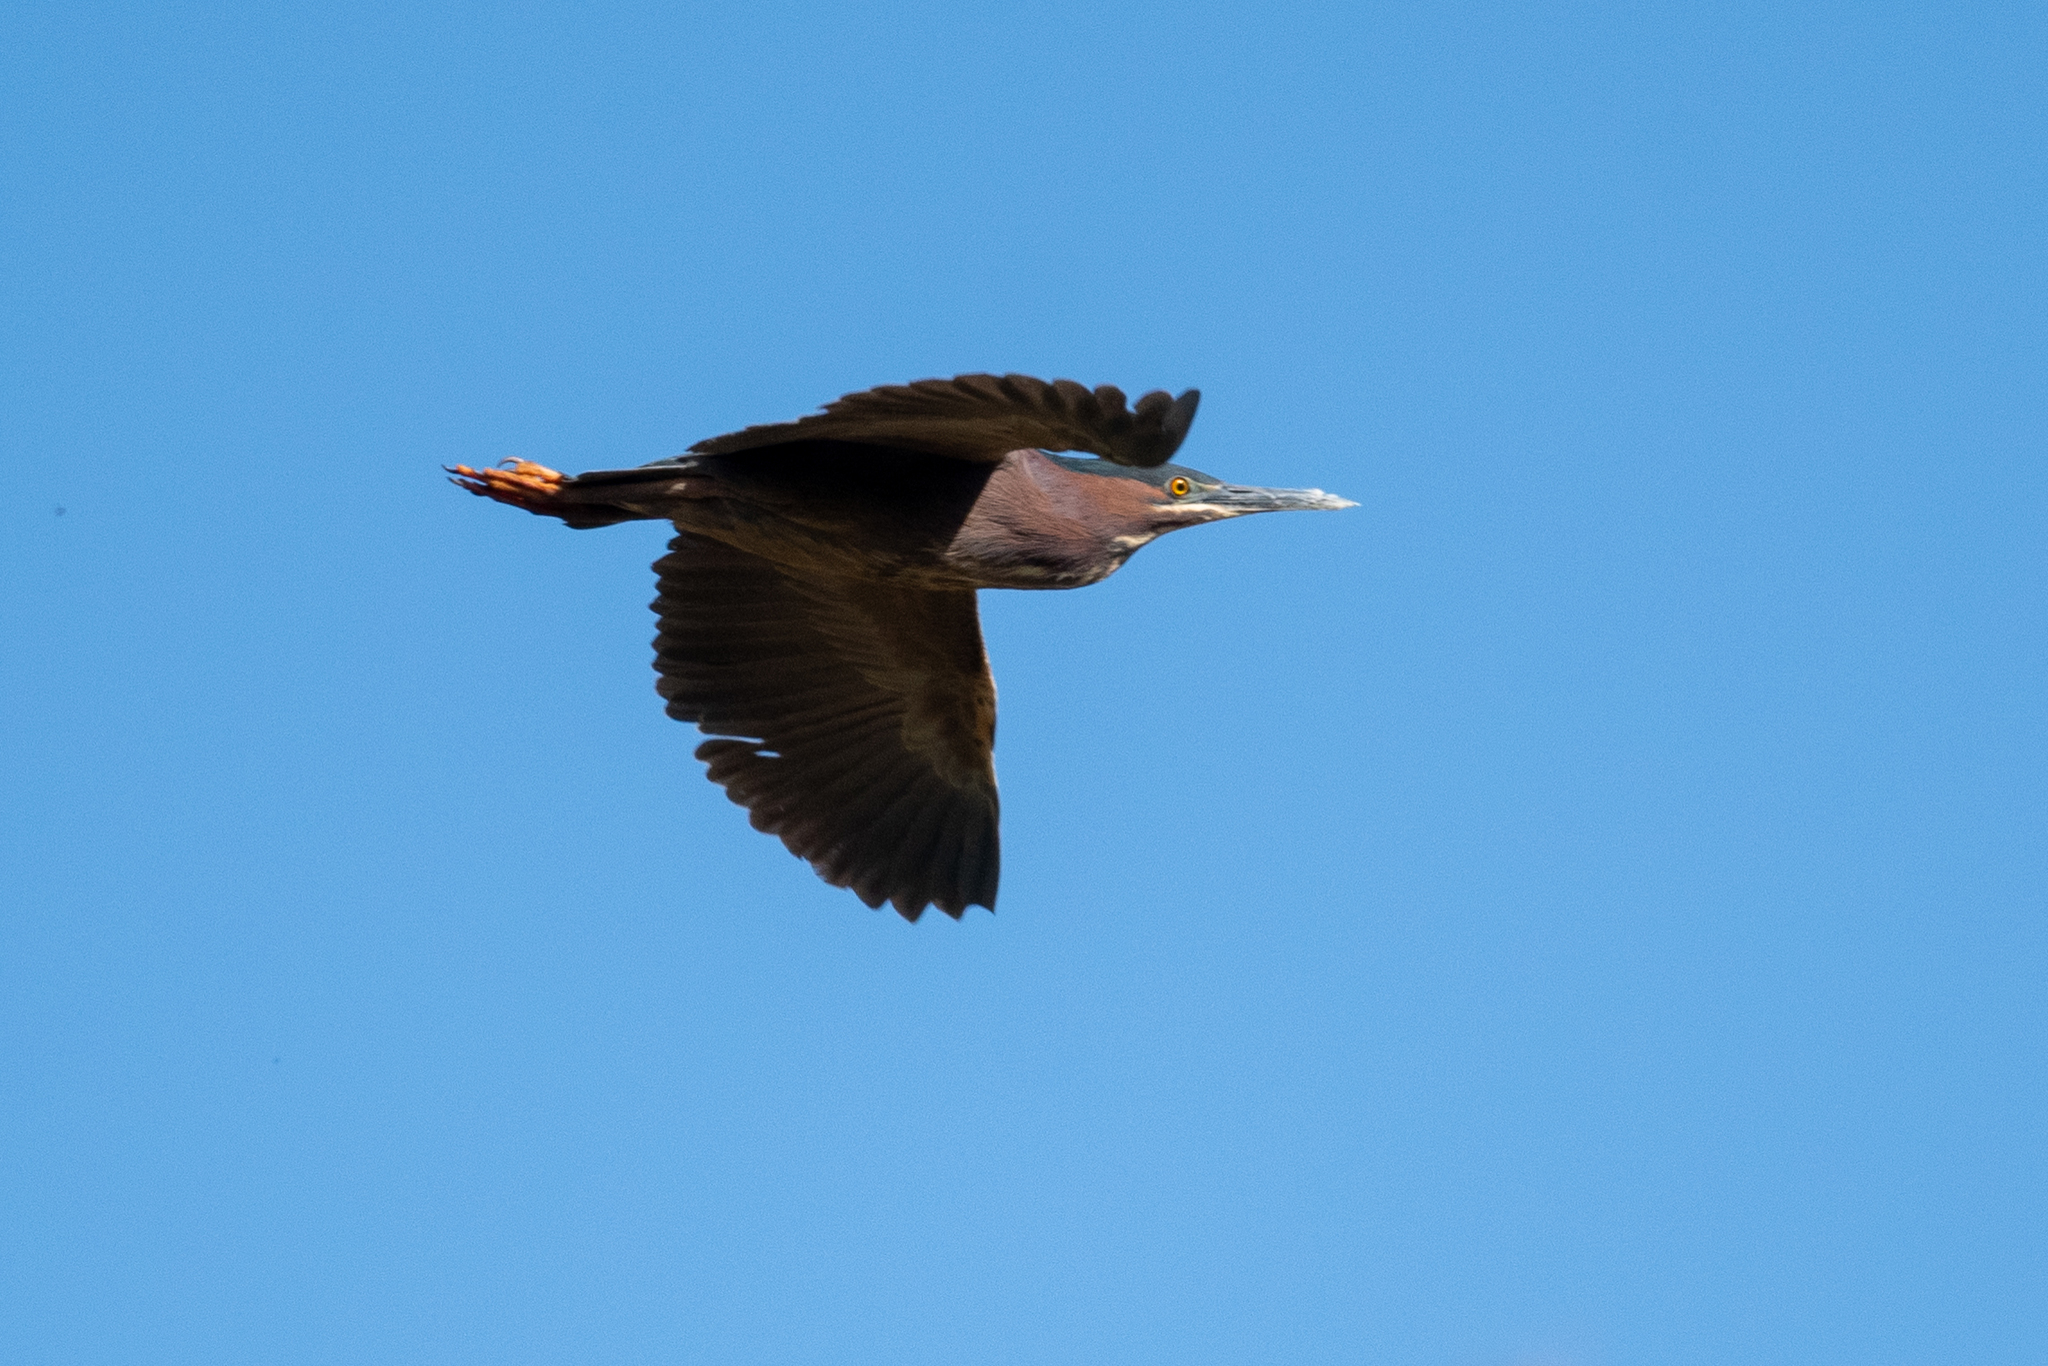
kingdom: Animalia
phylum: Chordata
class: Aves
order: Pelecaniformes
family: Ardeidae
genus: Butorides
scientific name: Butorides virescens
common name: Green heron
